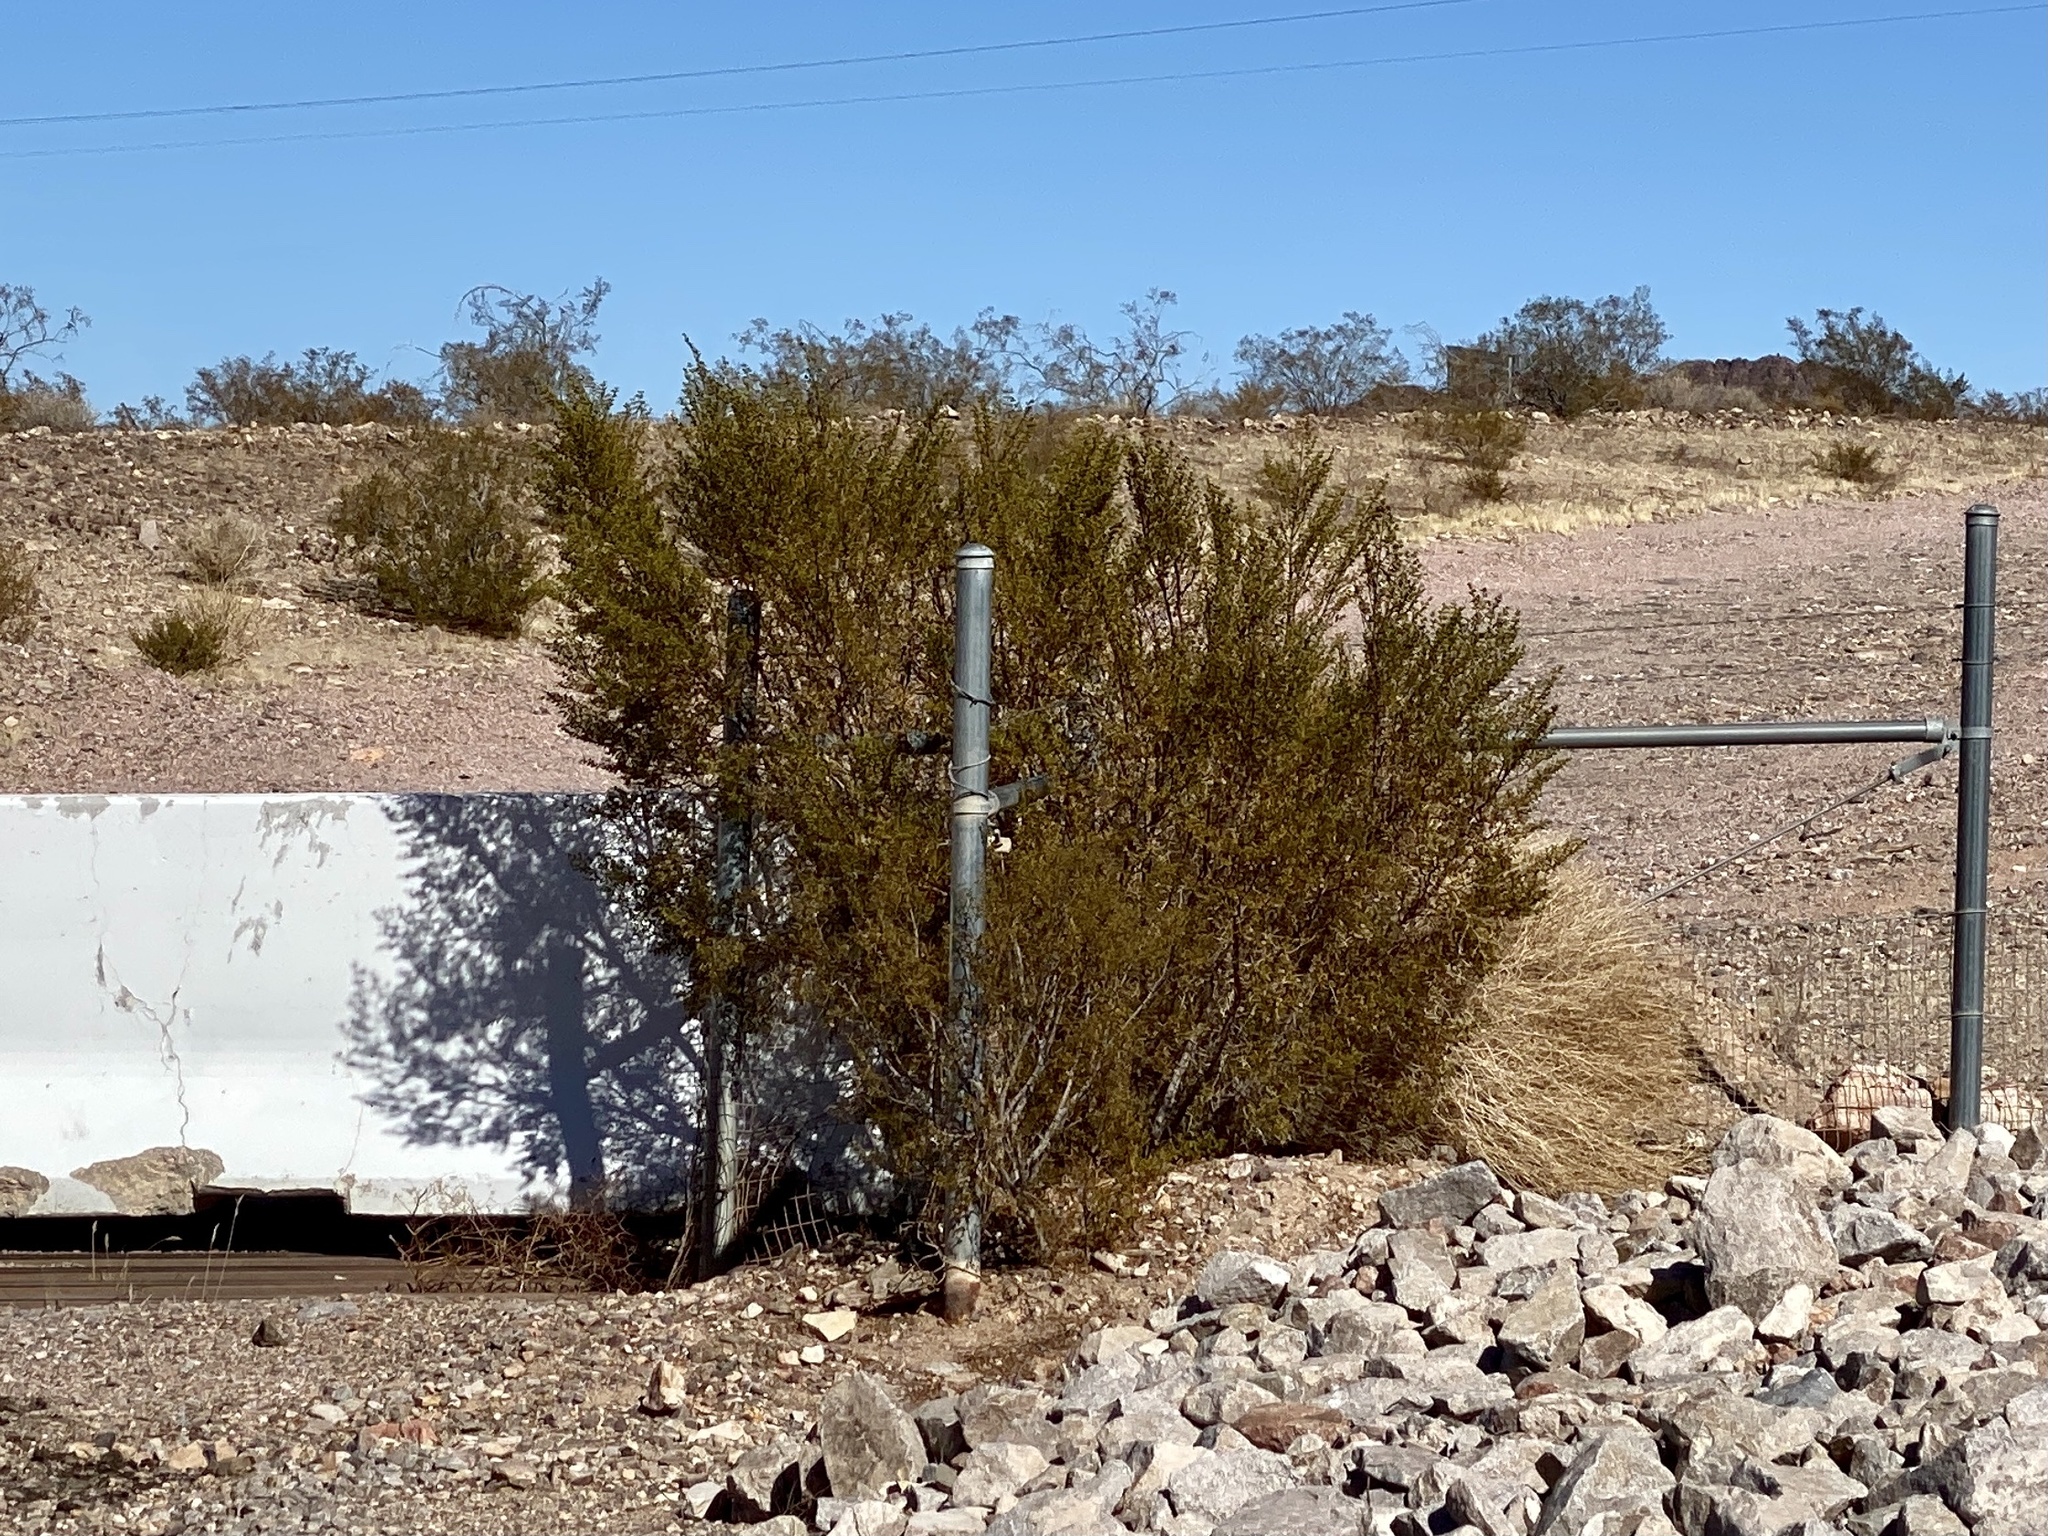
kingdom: Plantae
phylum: Tracheophyta
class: Magnoliopsida
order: Zygophyllales
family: Zygophyllaceae
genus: Larrea
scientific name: Larrea tridentata
